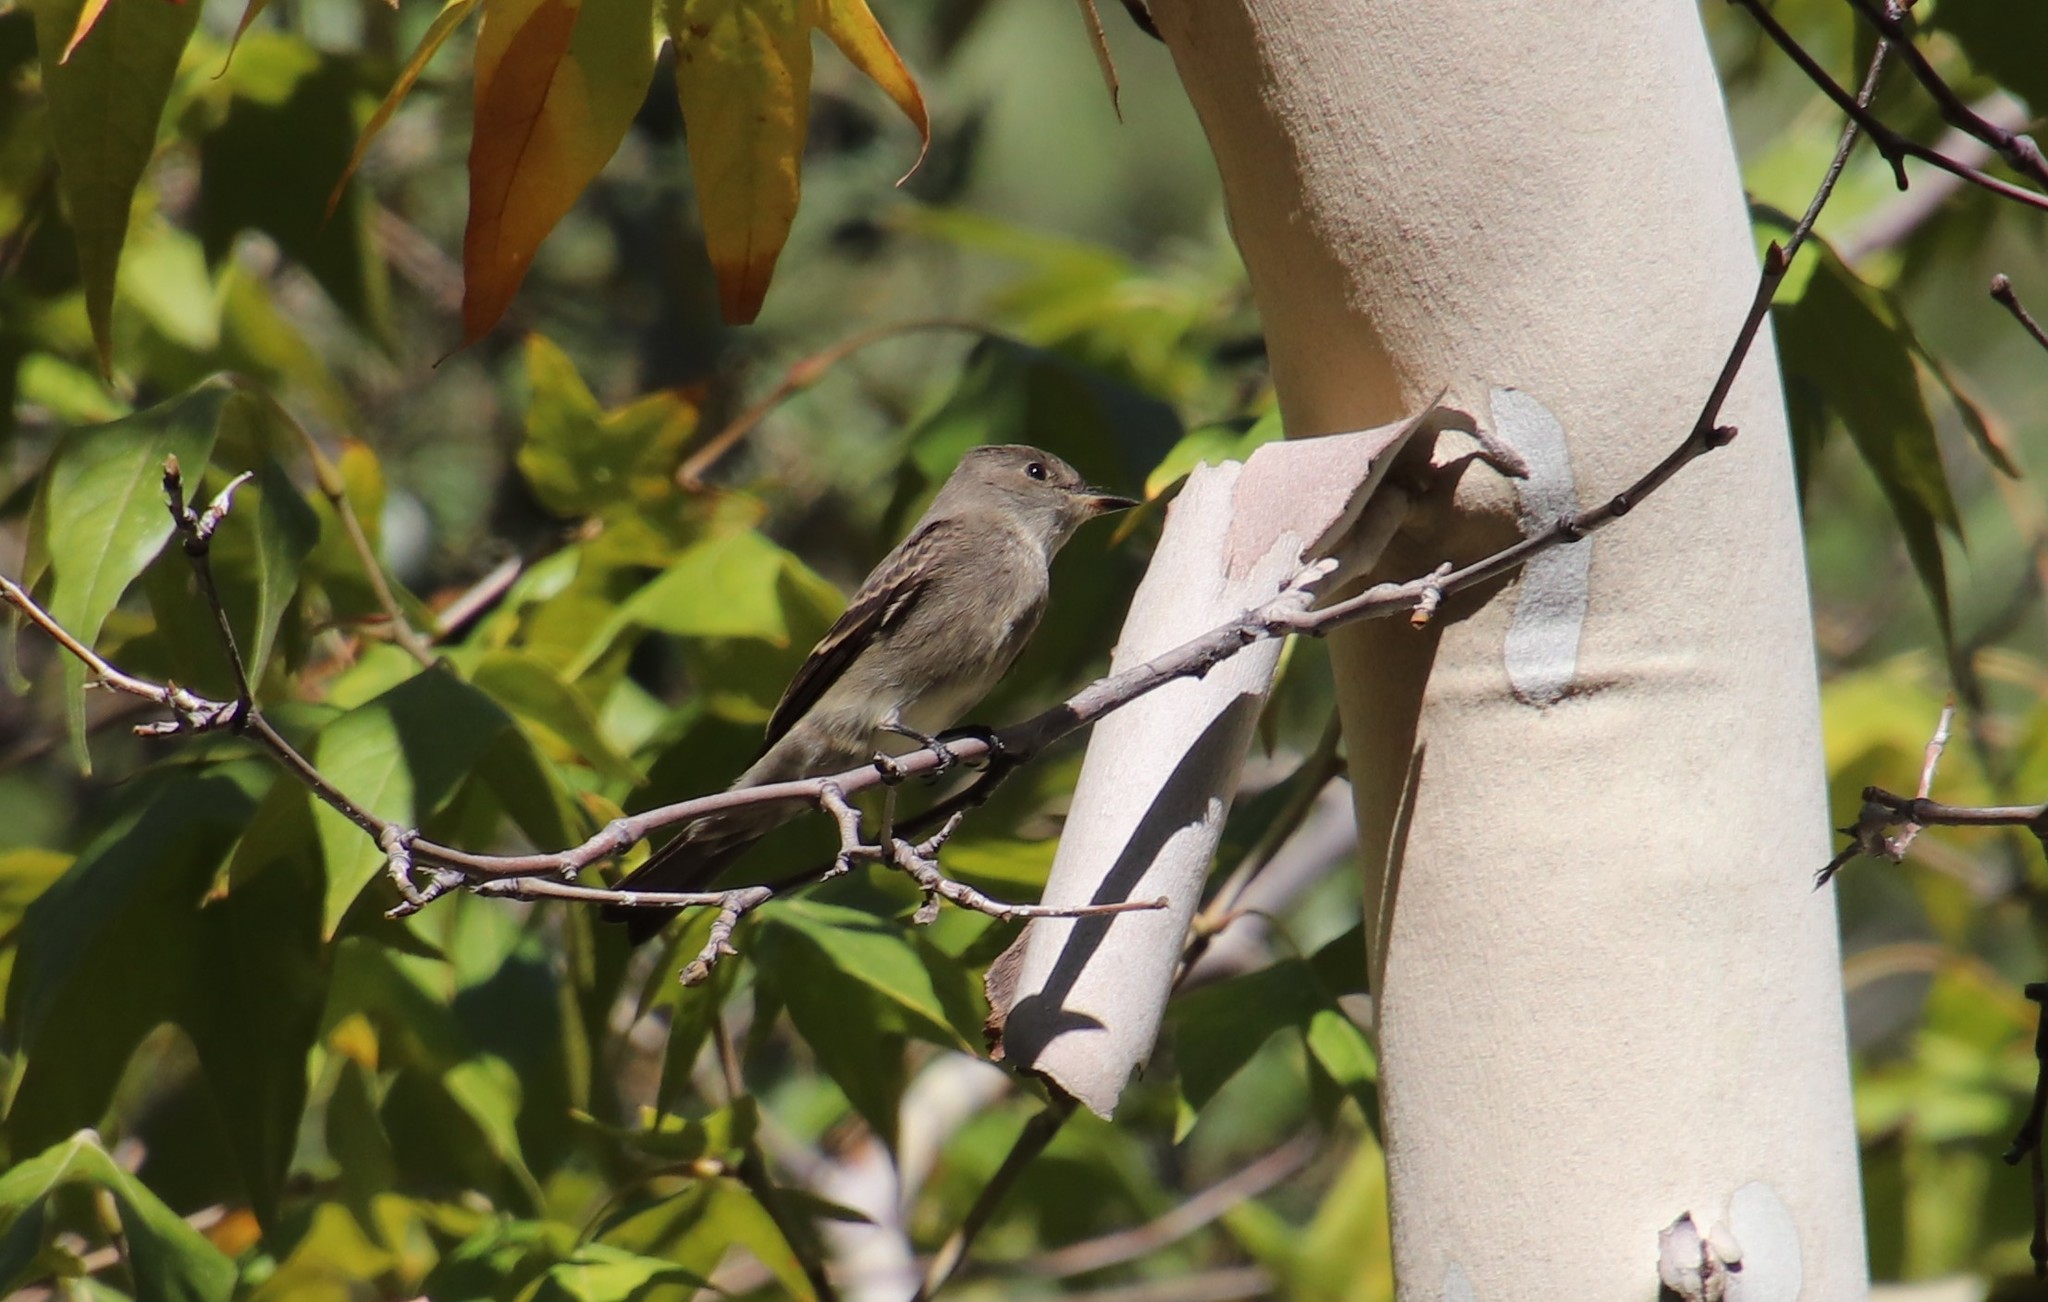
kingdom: Animalia
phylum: Chordata
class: Aves
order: Passeriformes
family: Tyrannidae
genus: Contopus
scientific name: Contopus sordidulus
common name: Western wood-pewee
